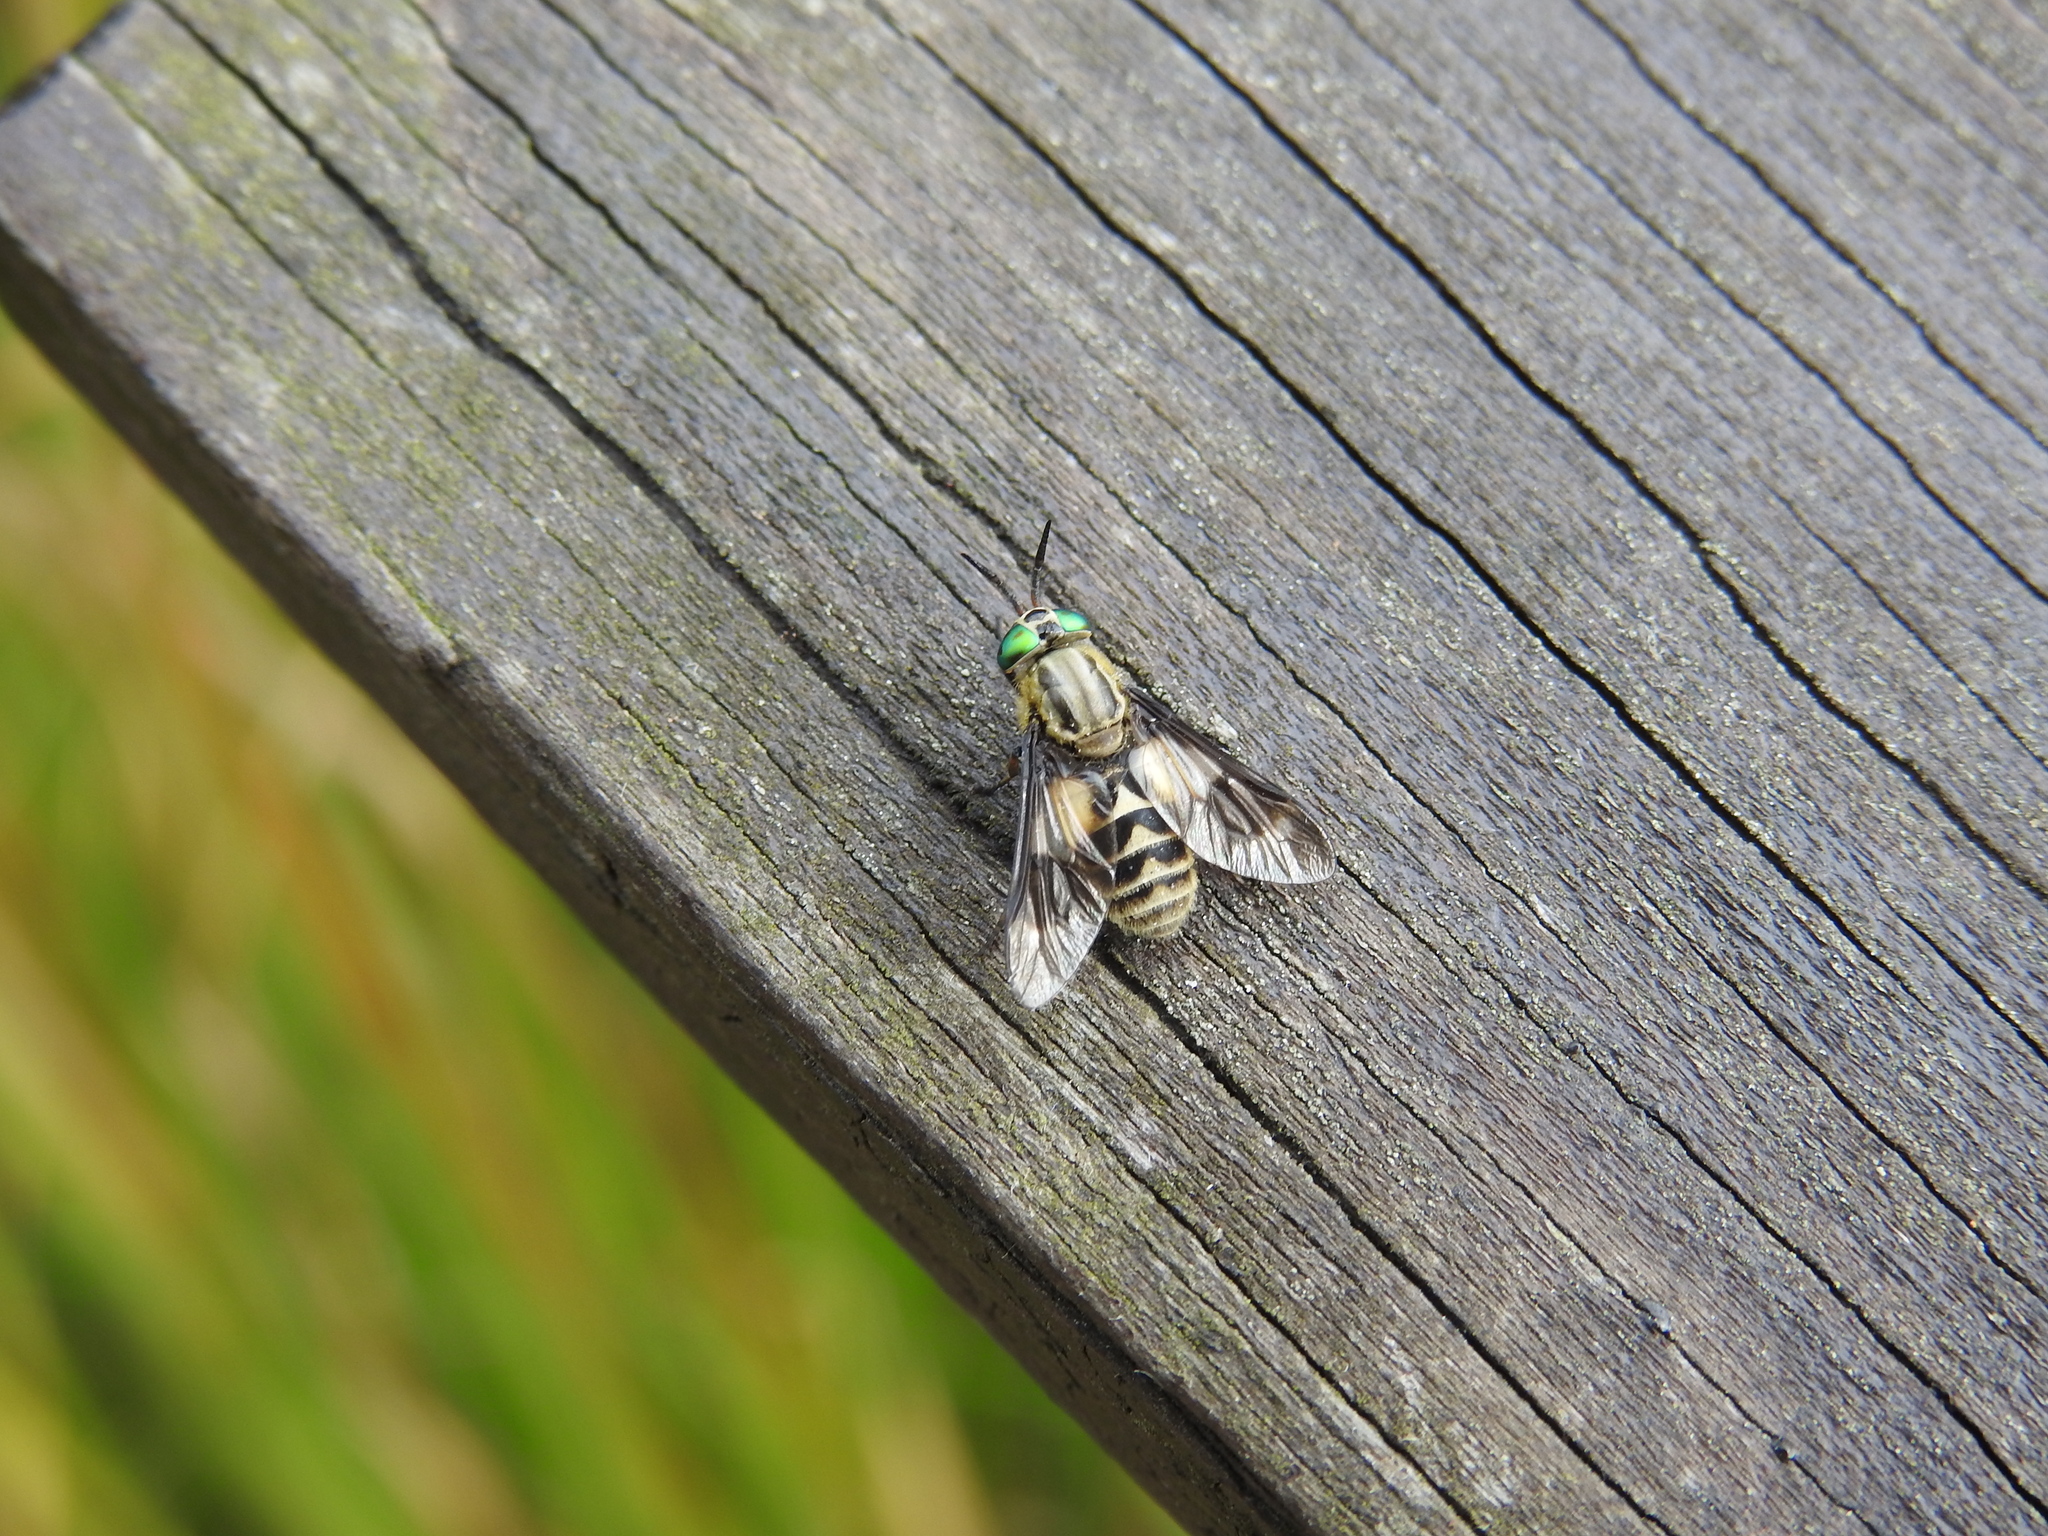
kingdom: Animalia
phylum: Arthropoda
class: Insecta
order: Diptera
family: Tabanidae
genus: Chrysops
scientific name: Chrysops relictus
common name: Twin-lobed deerfly
